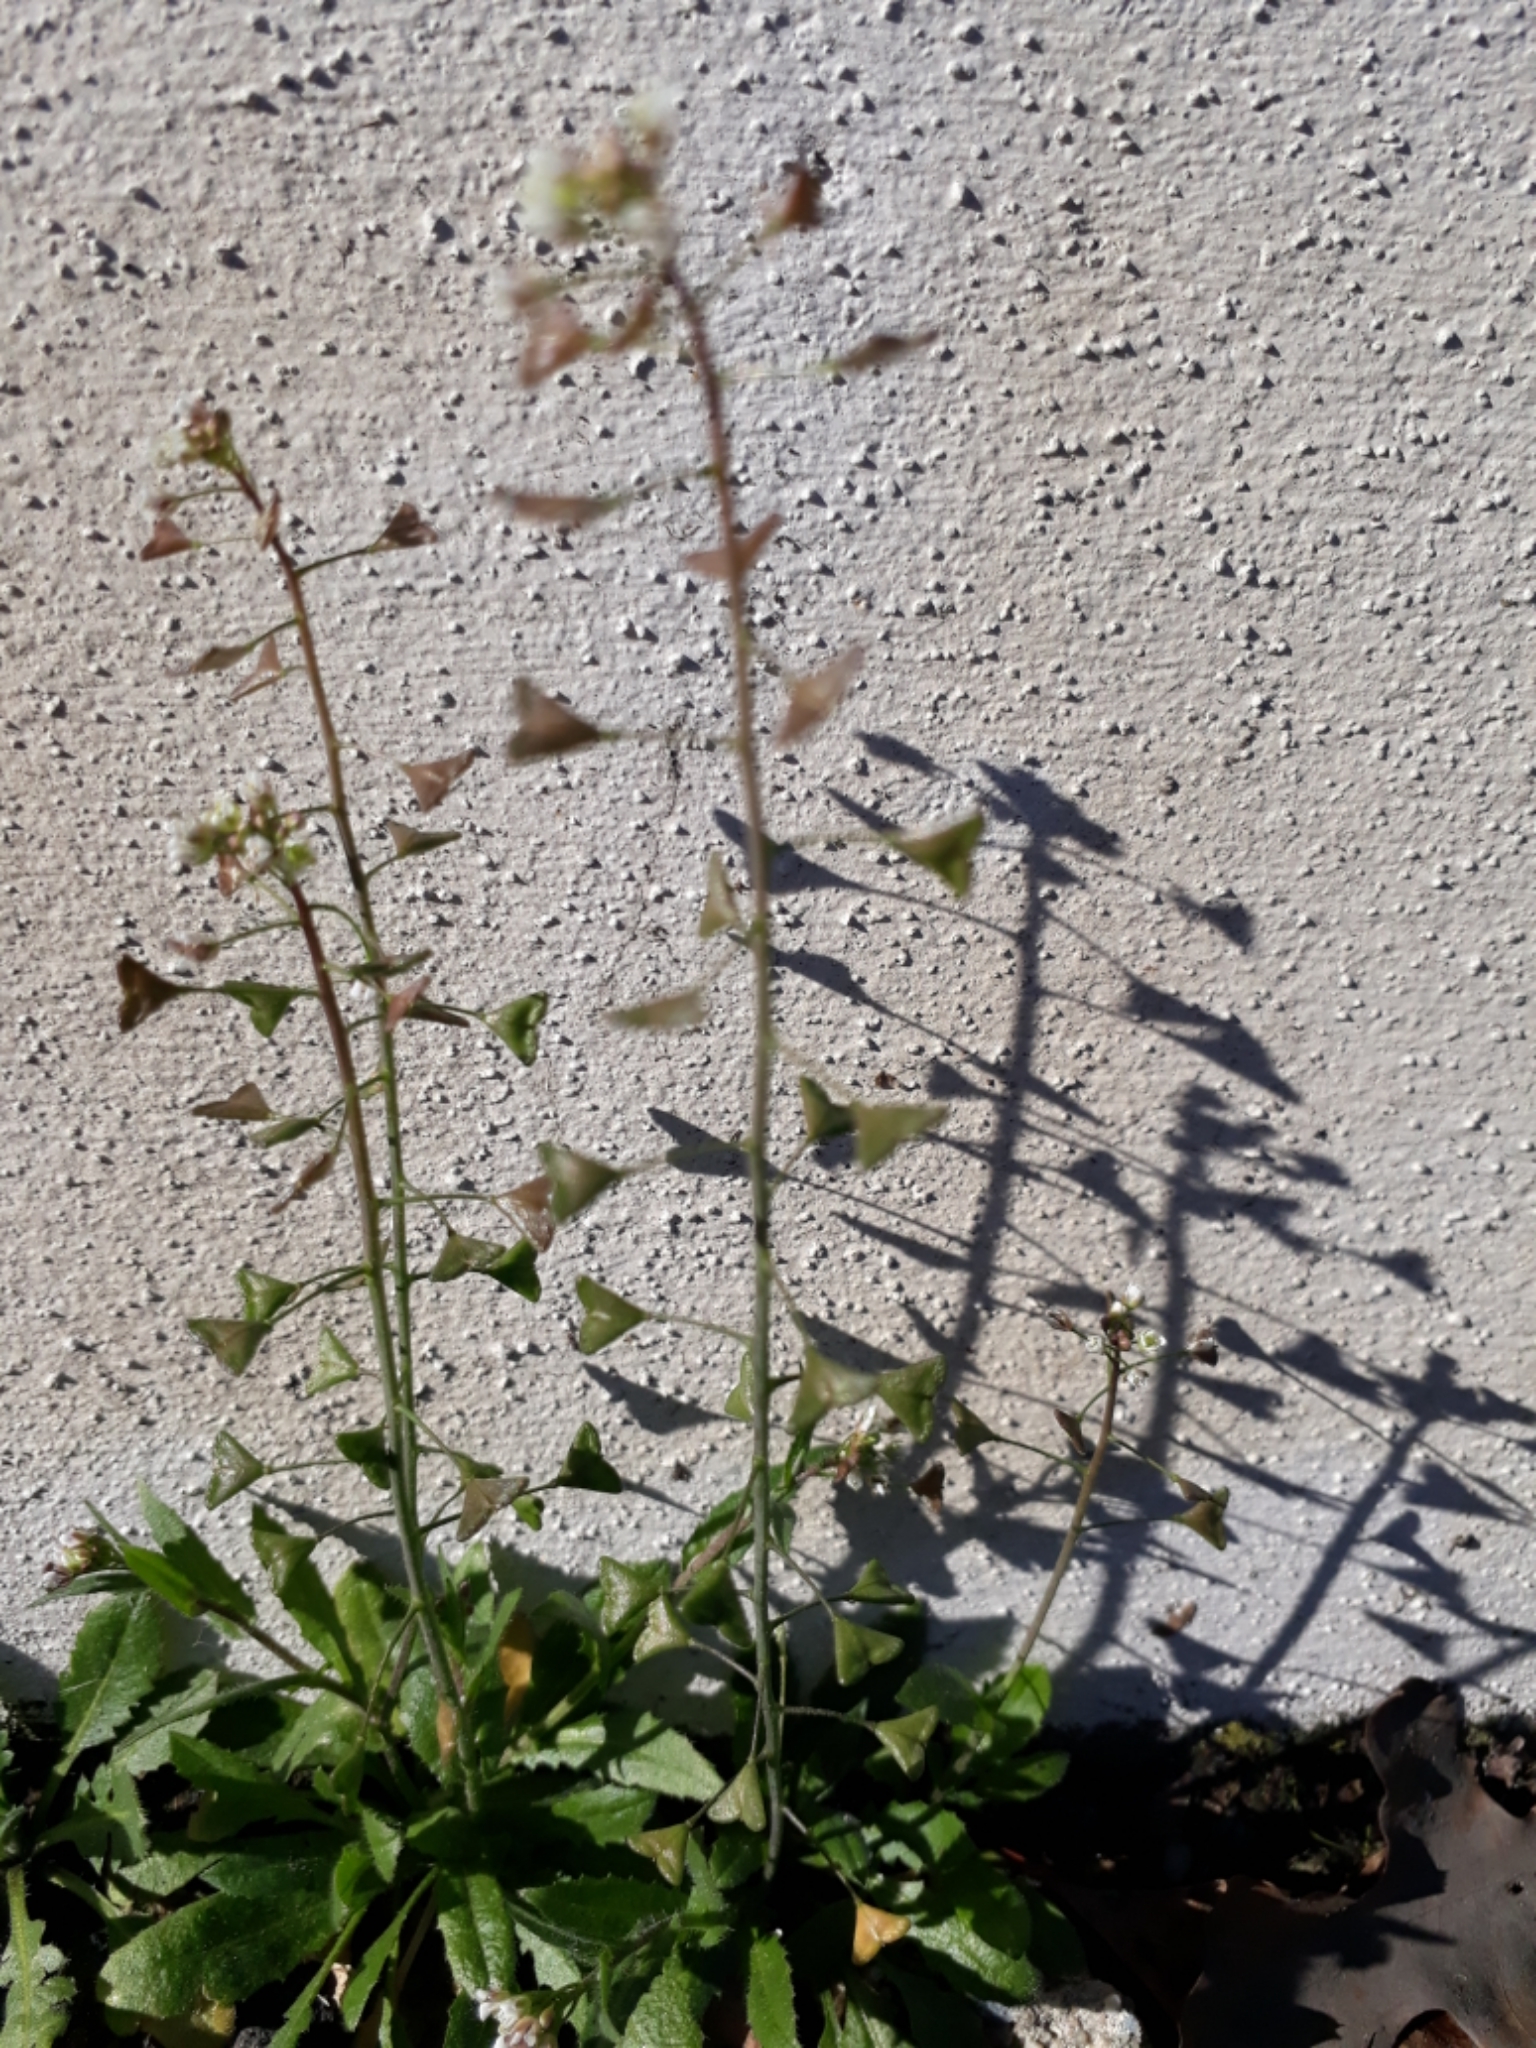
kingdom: Plantae
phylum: Tracheophyta
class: Magnoliopsida
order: Brassicales
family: Brassicaceae
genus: Capsella
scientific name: Capsella bursa-pastoris
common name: Shepherd's purse
